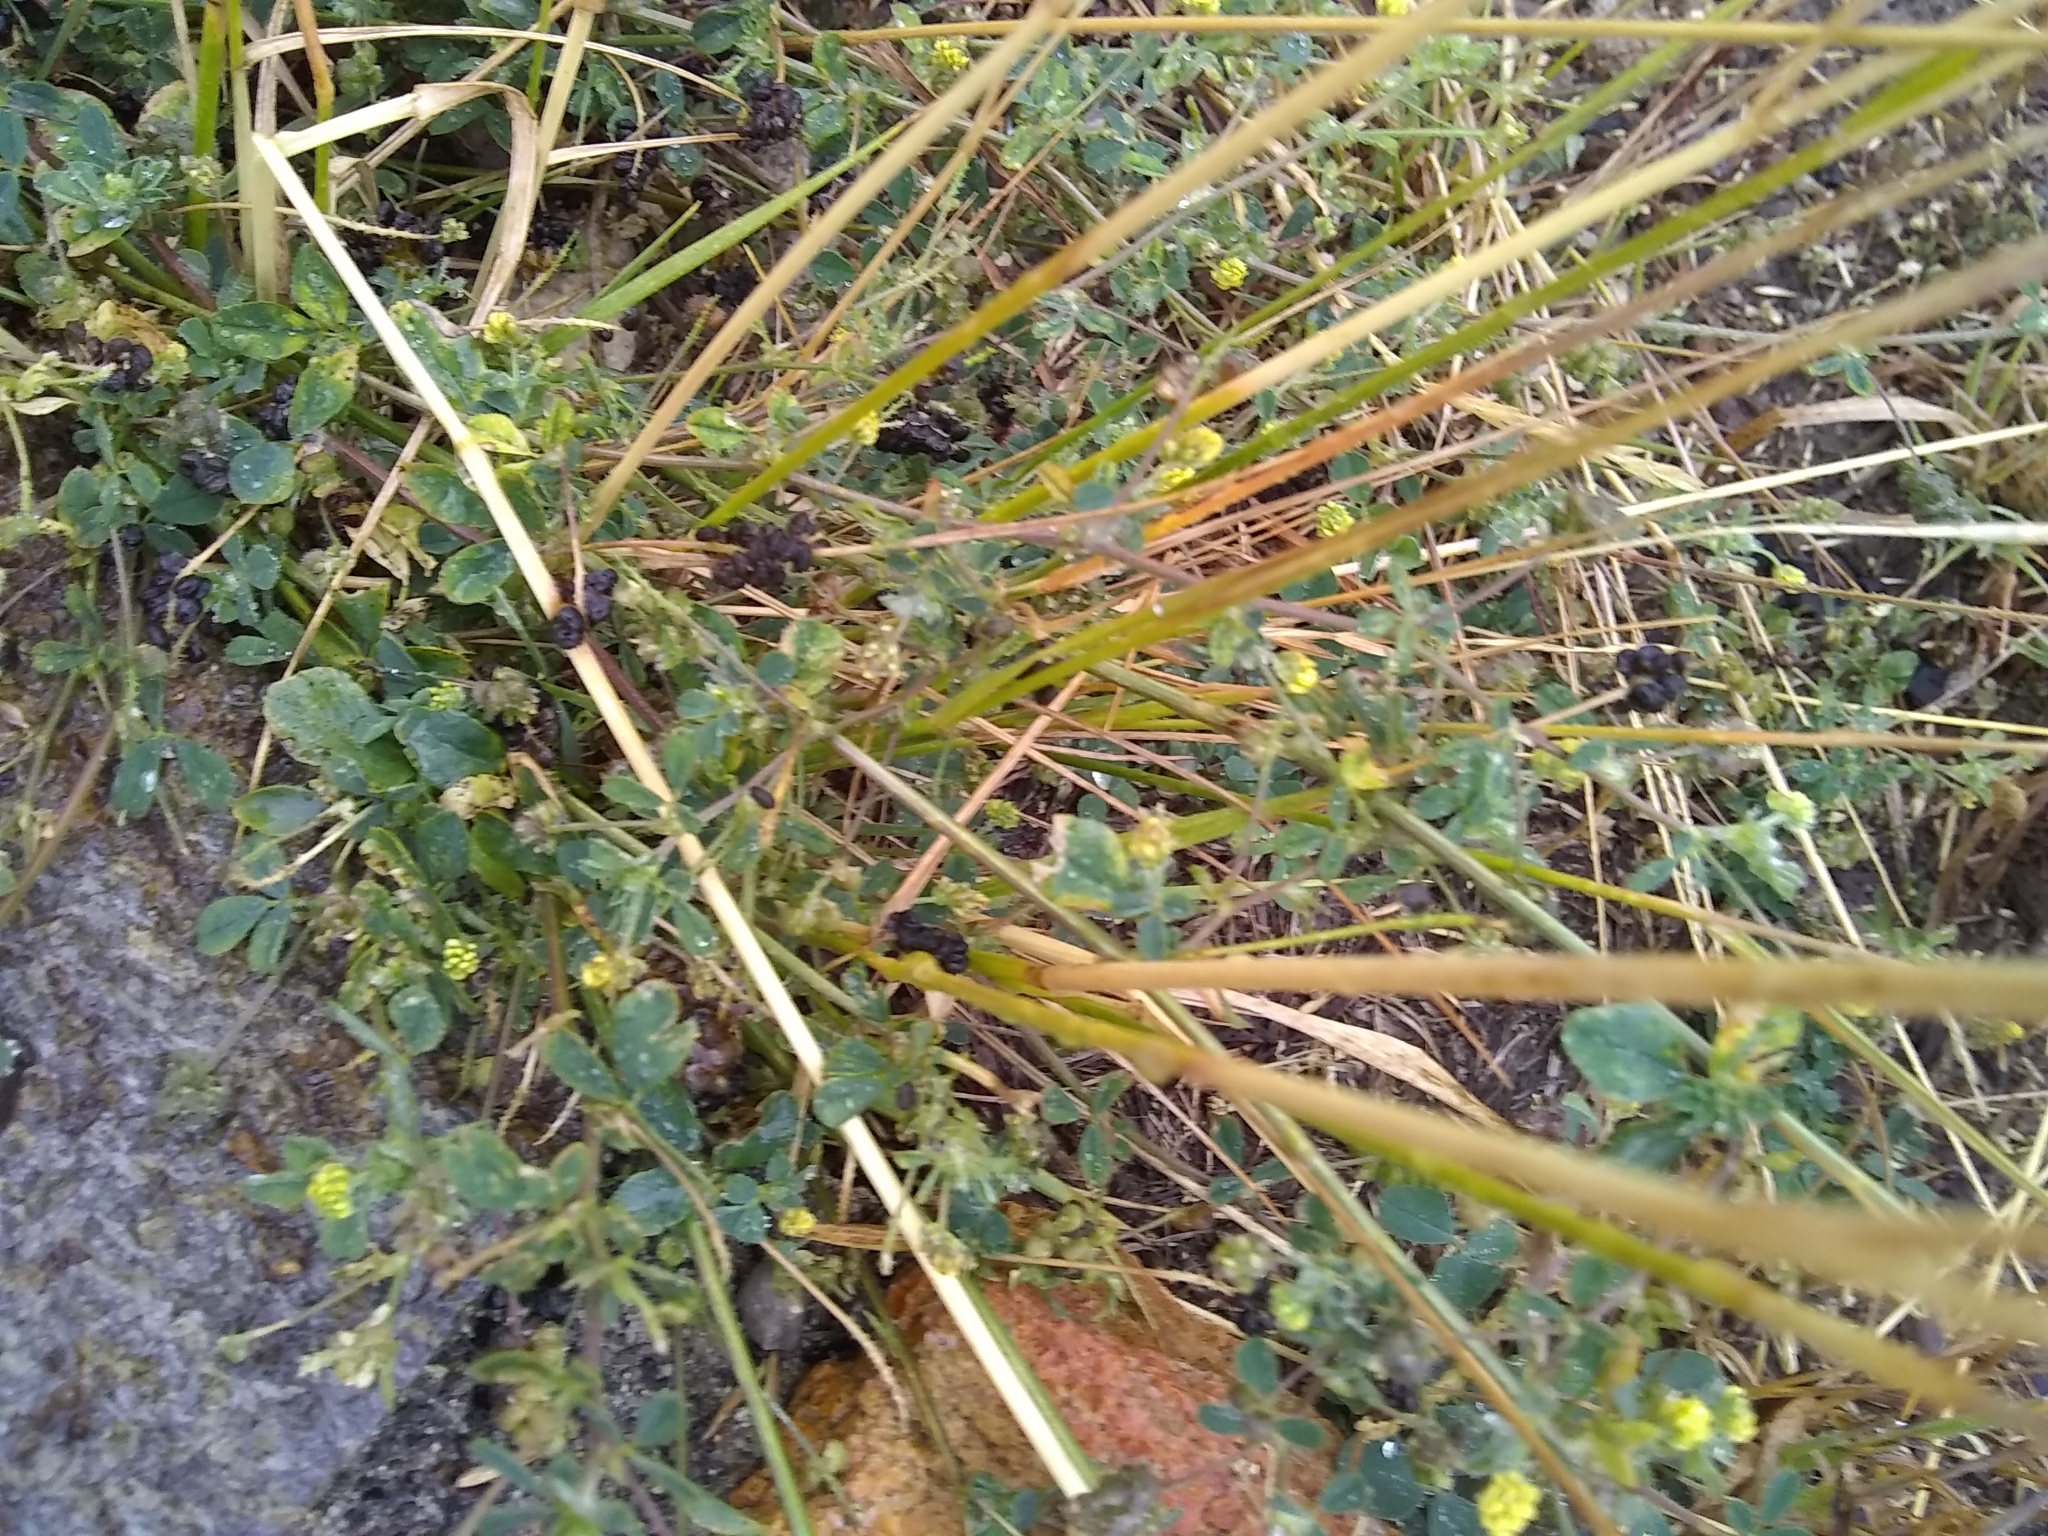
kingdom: Plantae
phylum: Tracheophyta
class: Magnoliopsida
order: Fabales
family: Fabaceae
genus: Medicago
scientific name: Medicago lupulina
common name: Black medick
